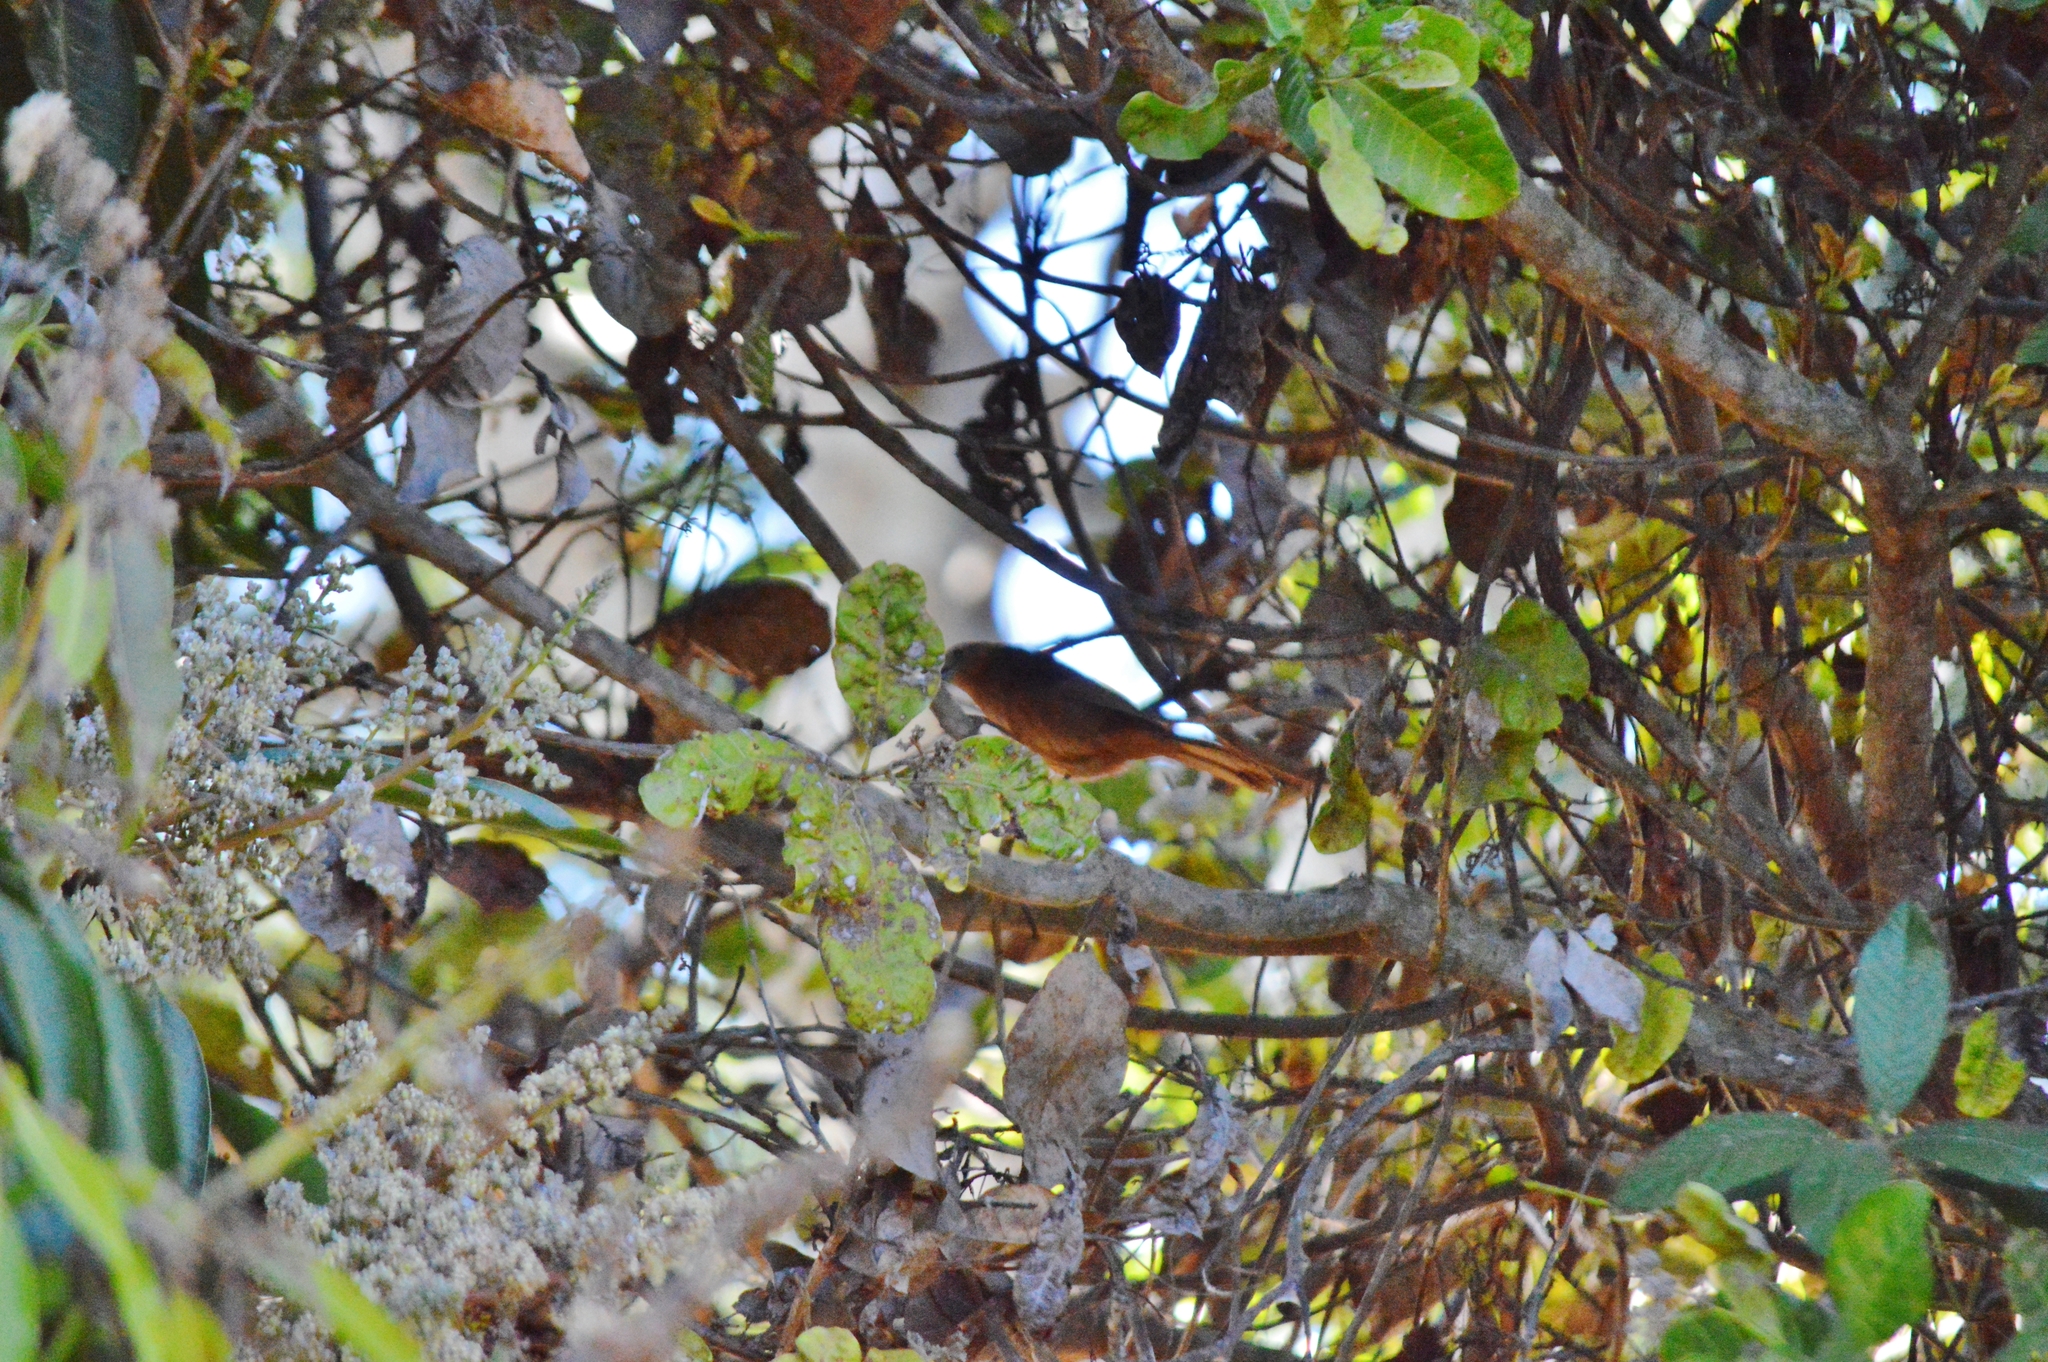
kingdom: Animalia
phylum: Chordata
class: Aves
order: Passeriformes
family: Thraupidae
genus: Tachyphonus
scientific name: Tachyphonus rufus
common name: White-lined tanager
